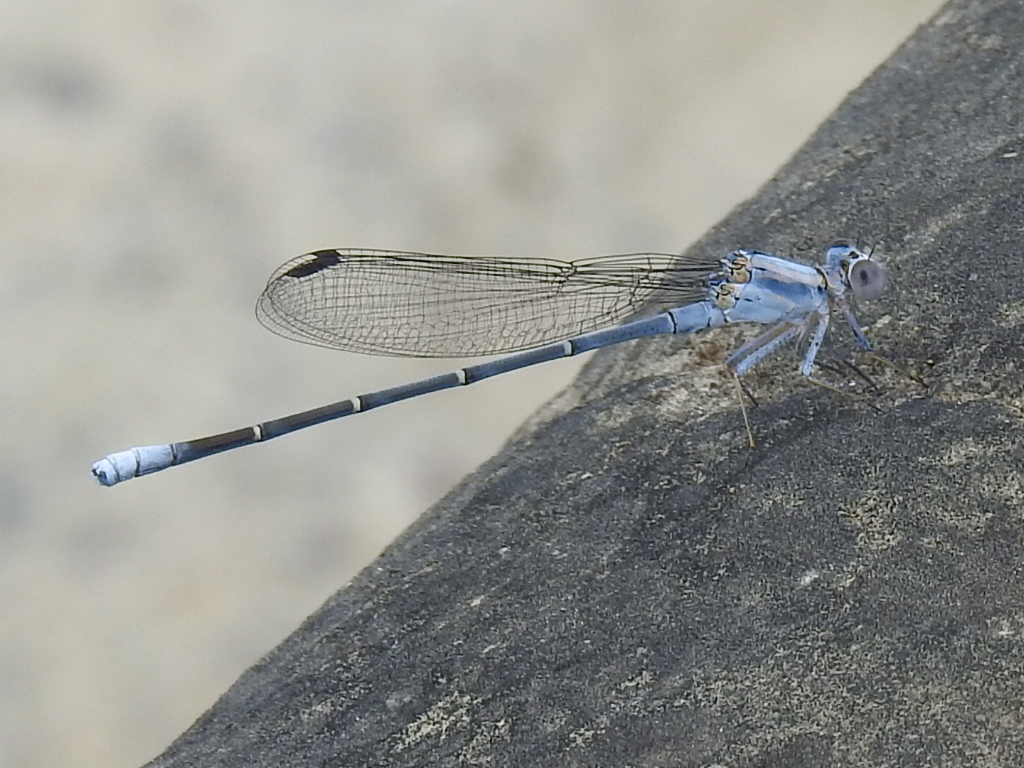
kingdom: Animalia
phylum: Arthropoda
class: Insecta
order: Odonata
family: Coenagrionidae
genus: Argia
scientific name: Argia moesta
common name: Powdered dancer
